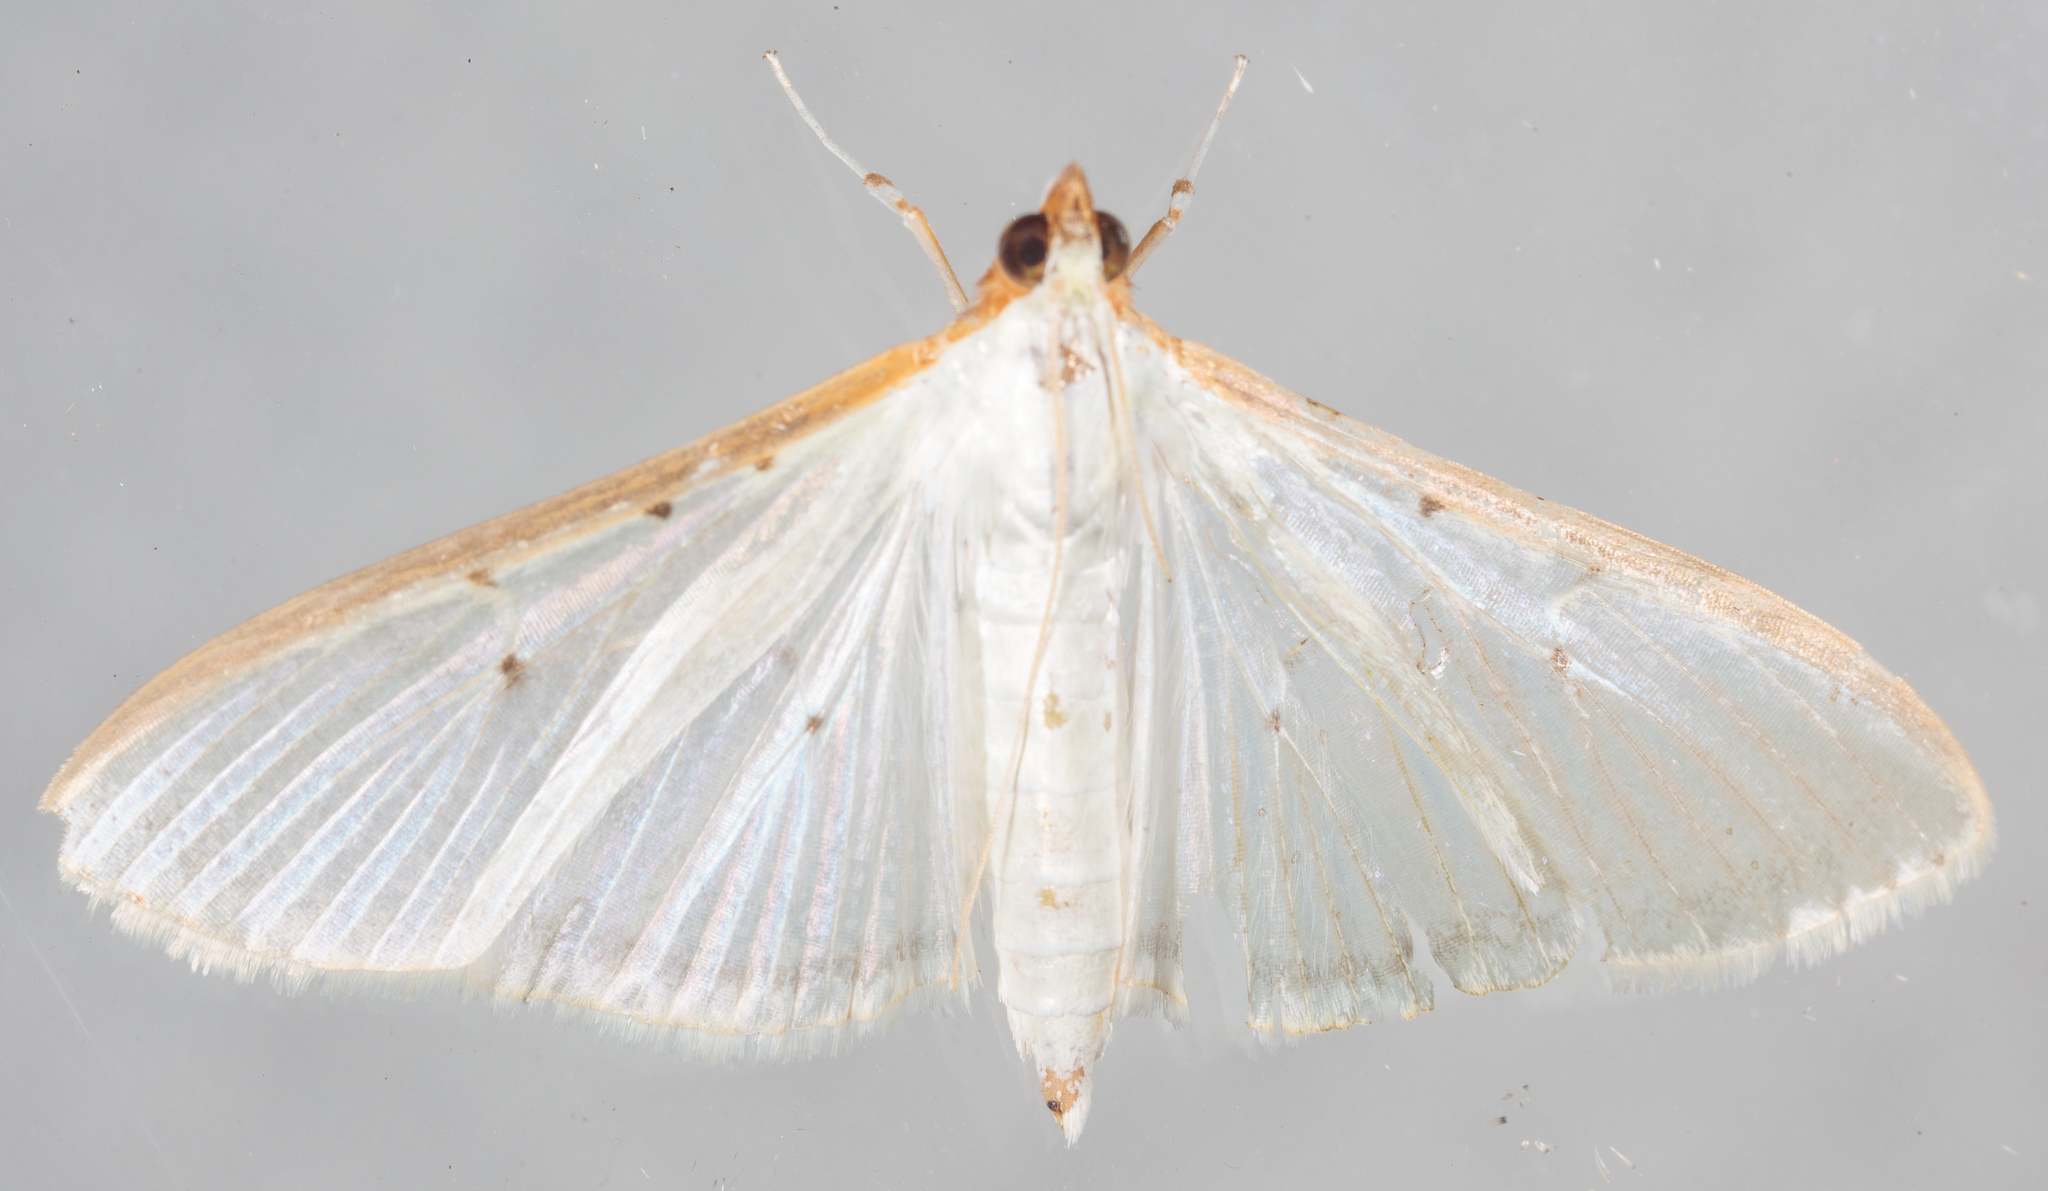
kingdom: Animalia
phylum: Arthropoda
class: Insecta
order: Lepidoptera
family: Crambidae
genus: Palpita
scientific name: Palpita quadristigmalis
